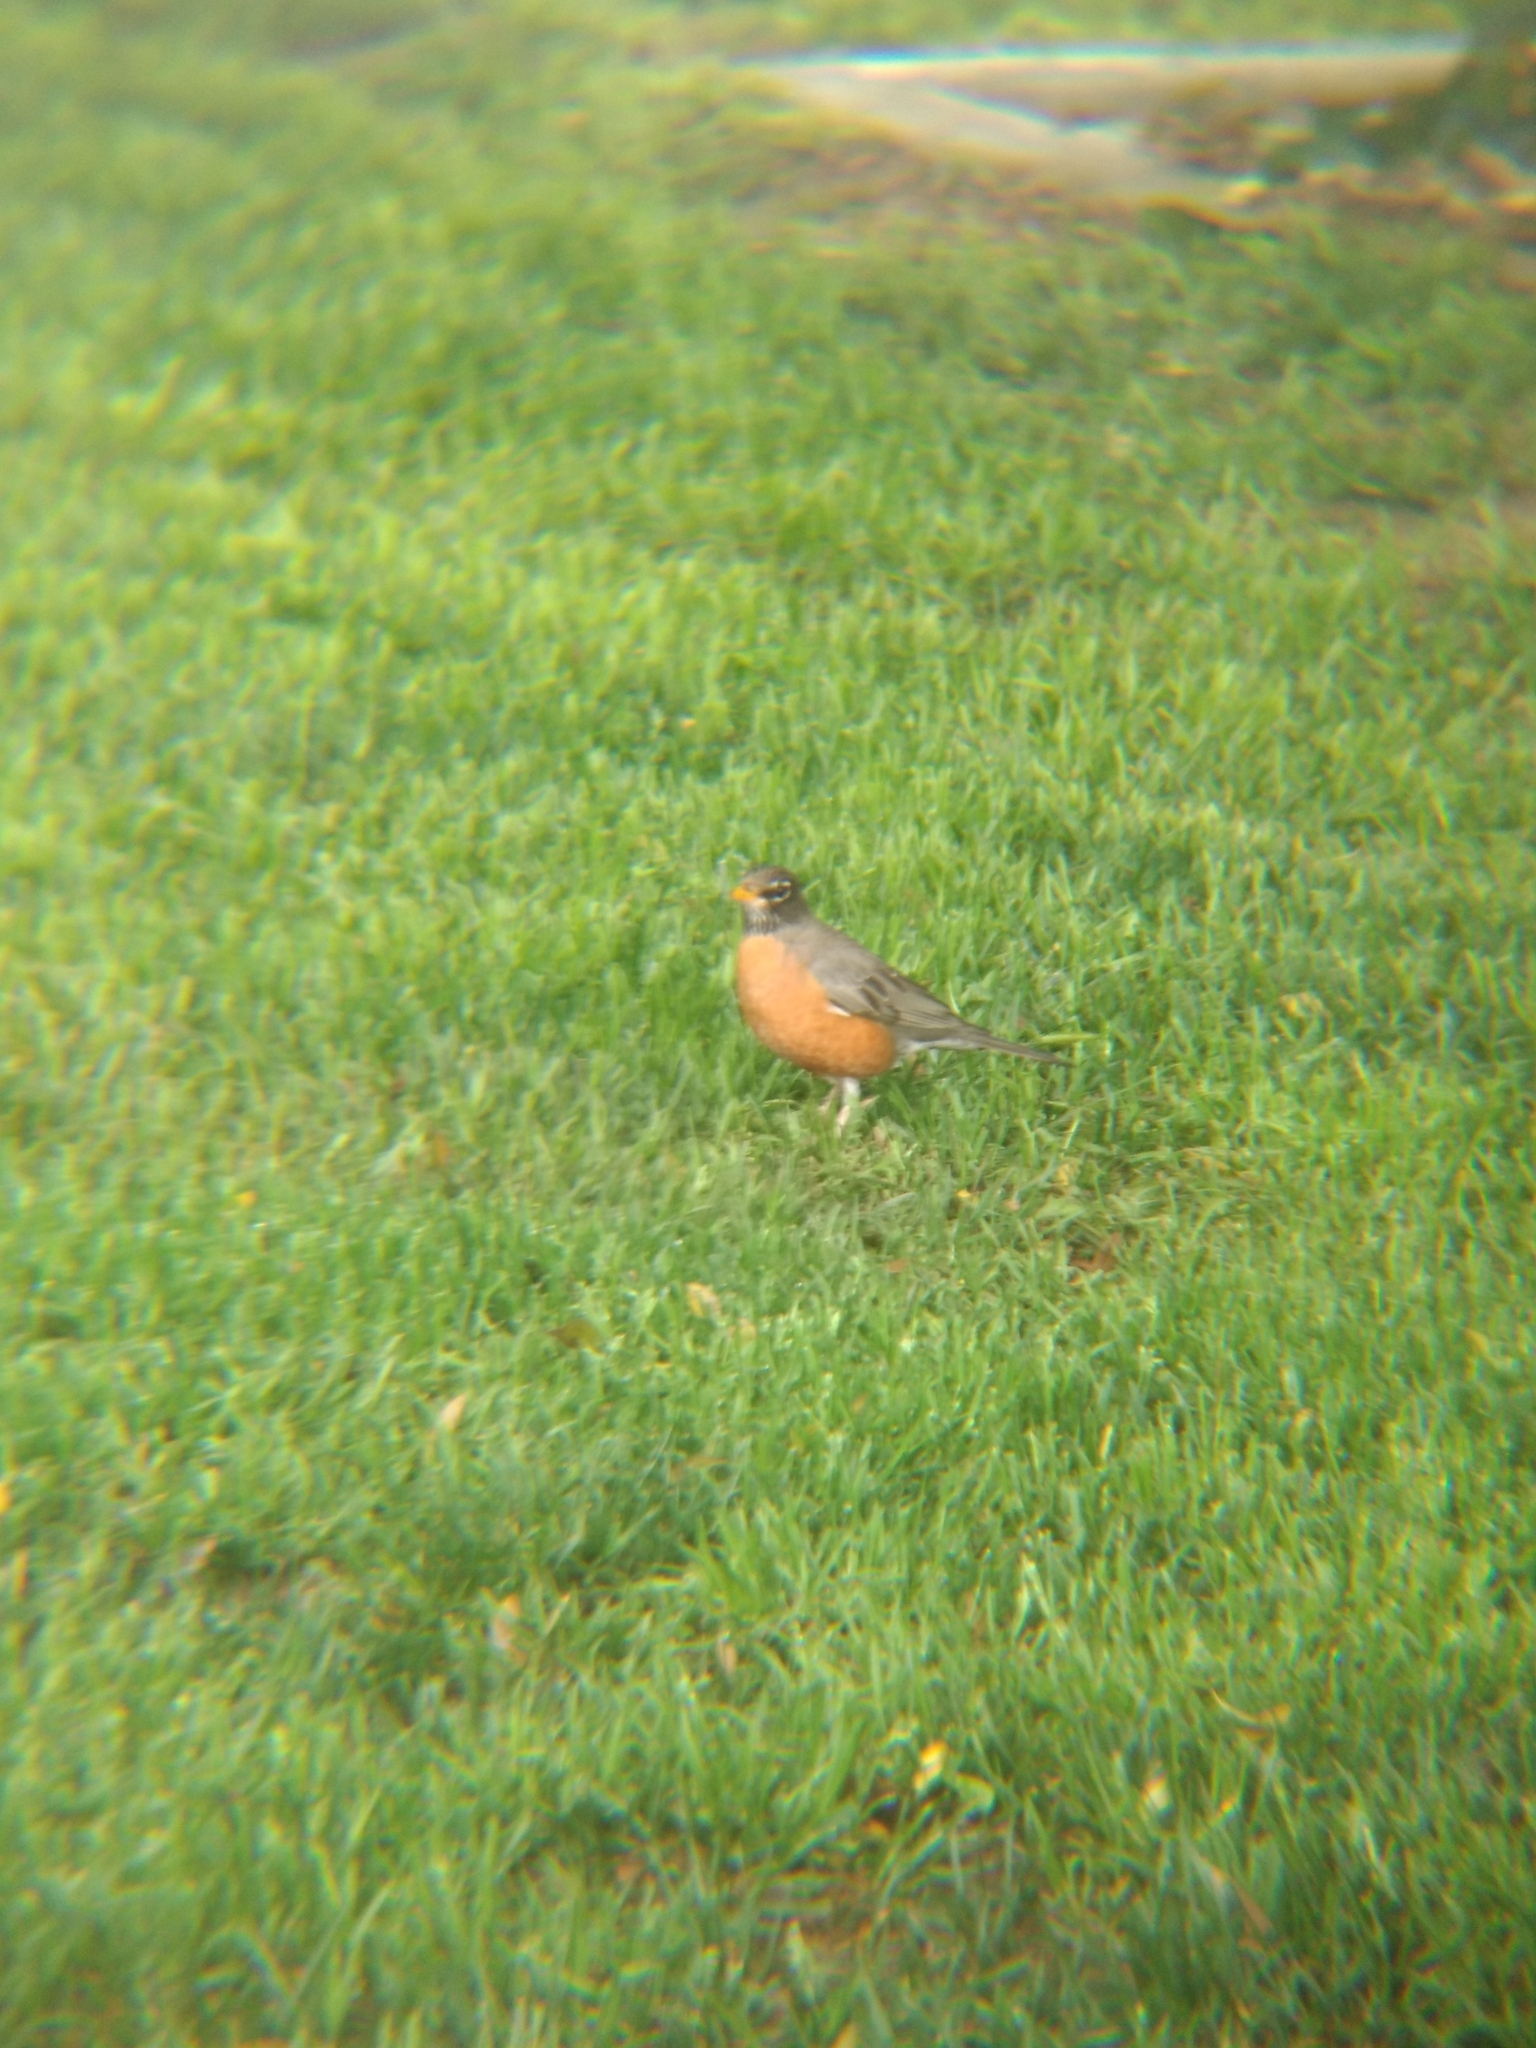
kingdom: Animalia
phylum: Chordata
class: Aves
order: Passeriformes
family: Turdidae
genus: Turdus
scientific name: Turdus migratorius
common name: American robin
